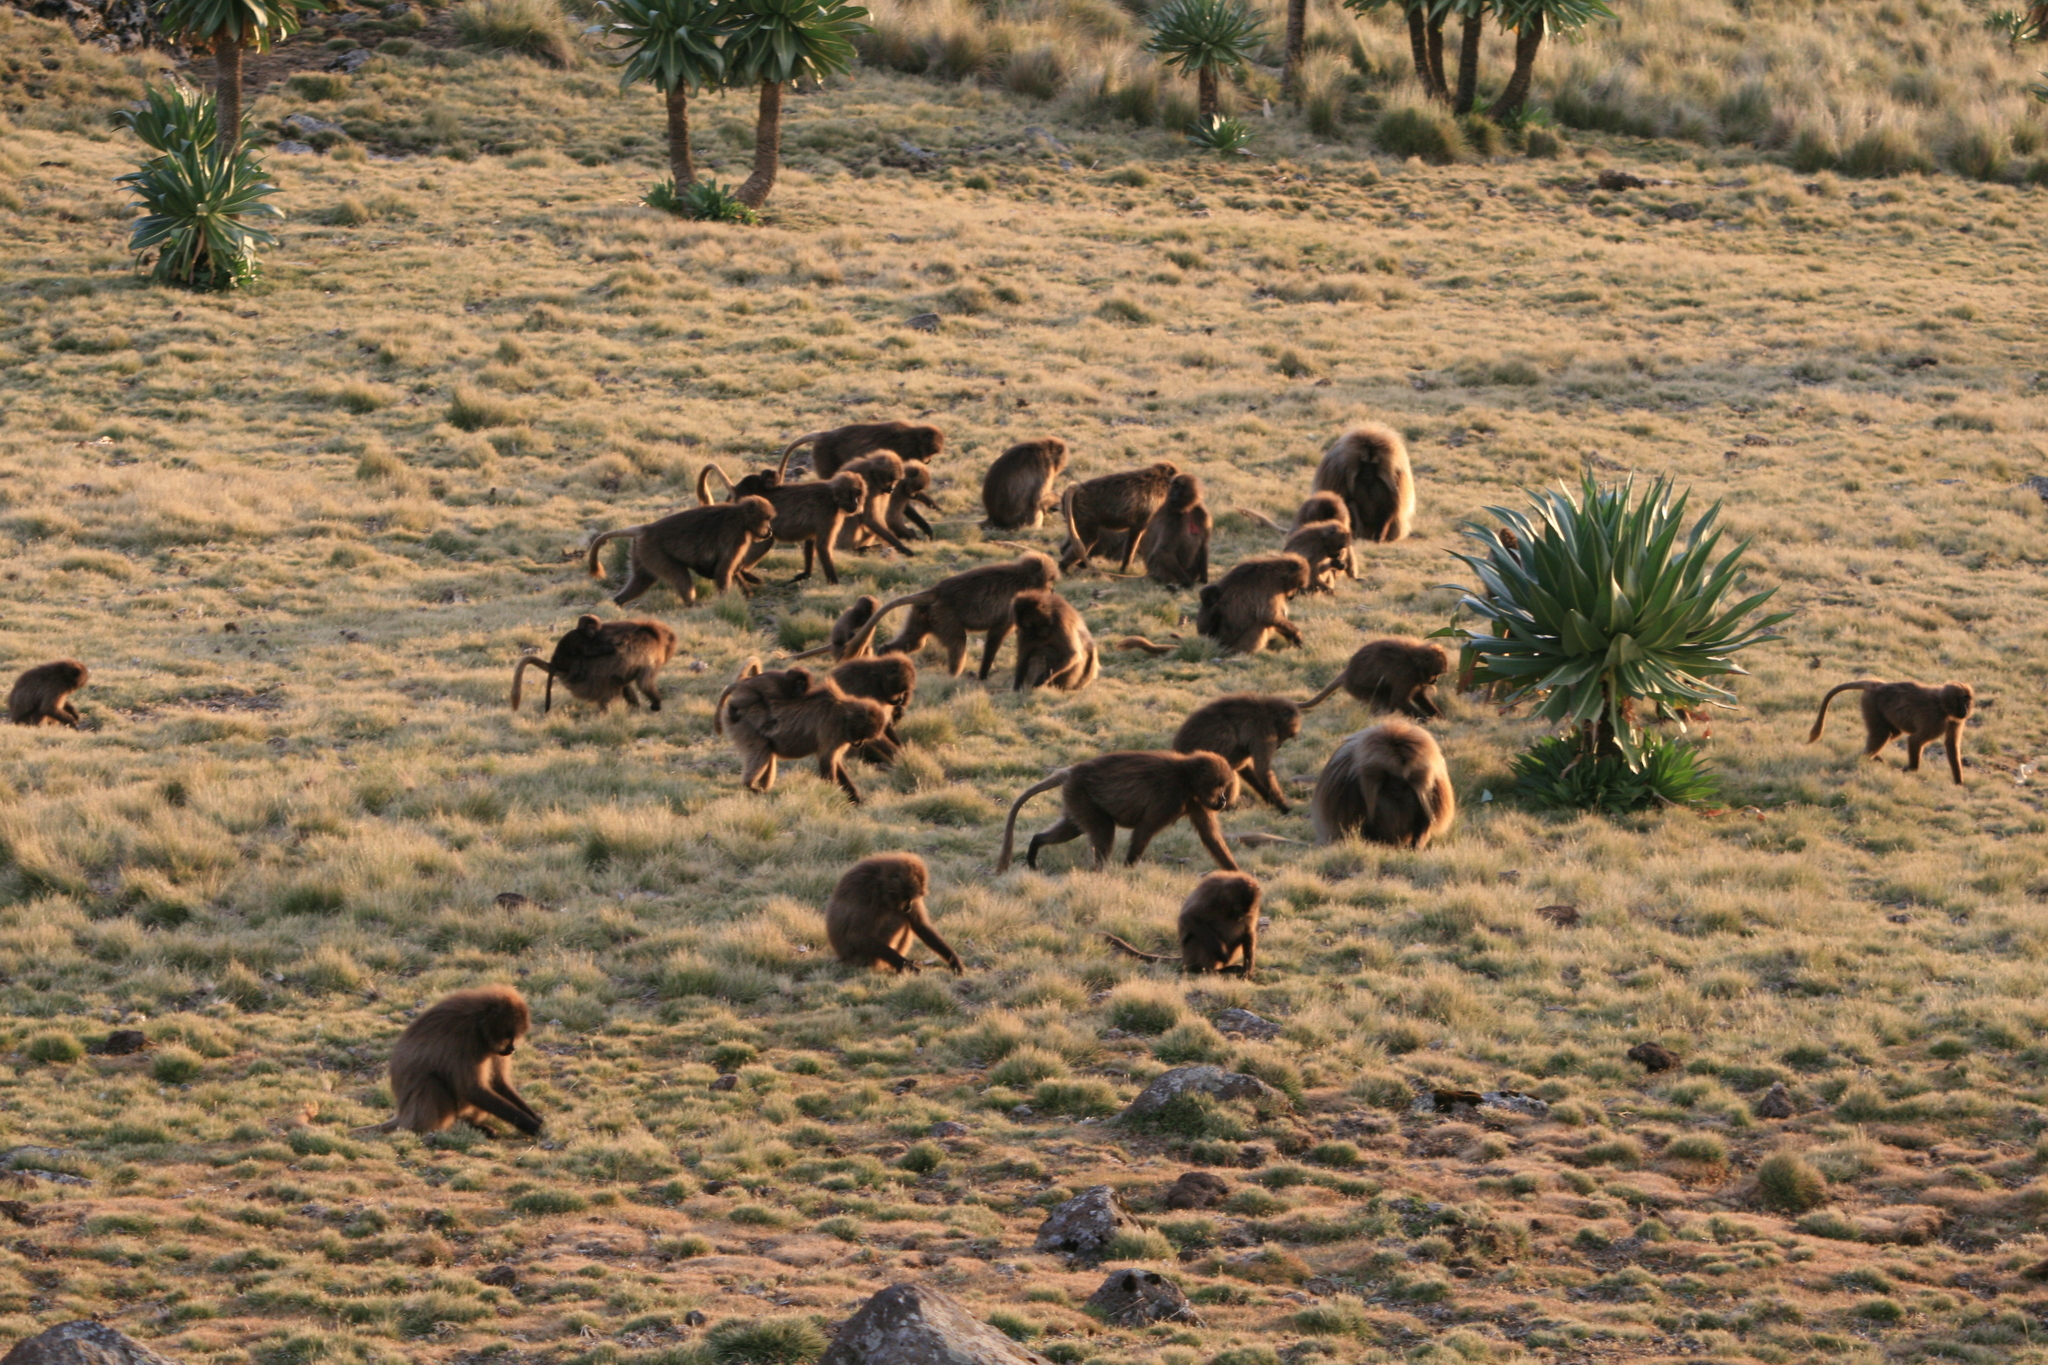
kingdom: Animalia
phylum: Chordata
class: Mammalia
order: Primates
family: Cercopithecidae
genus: Theropithecus
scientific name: Theropithecus gelada
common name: Gelada
